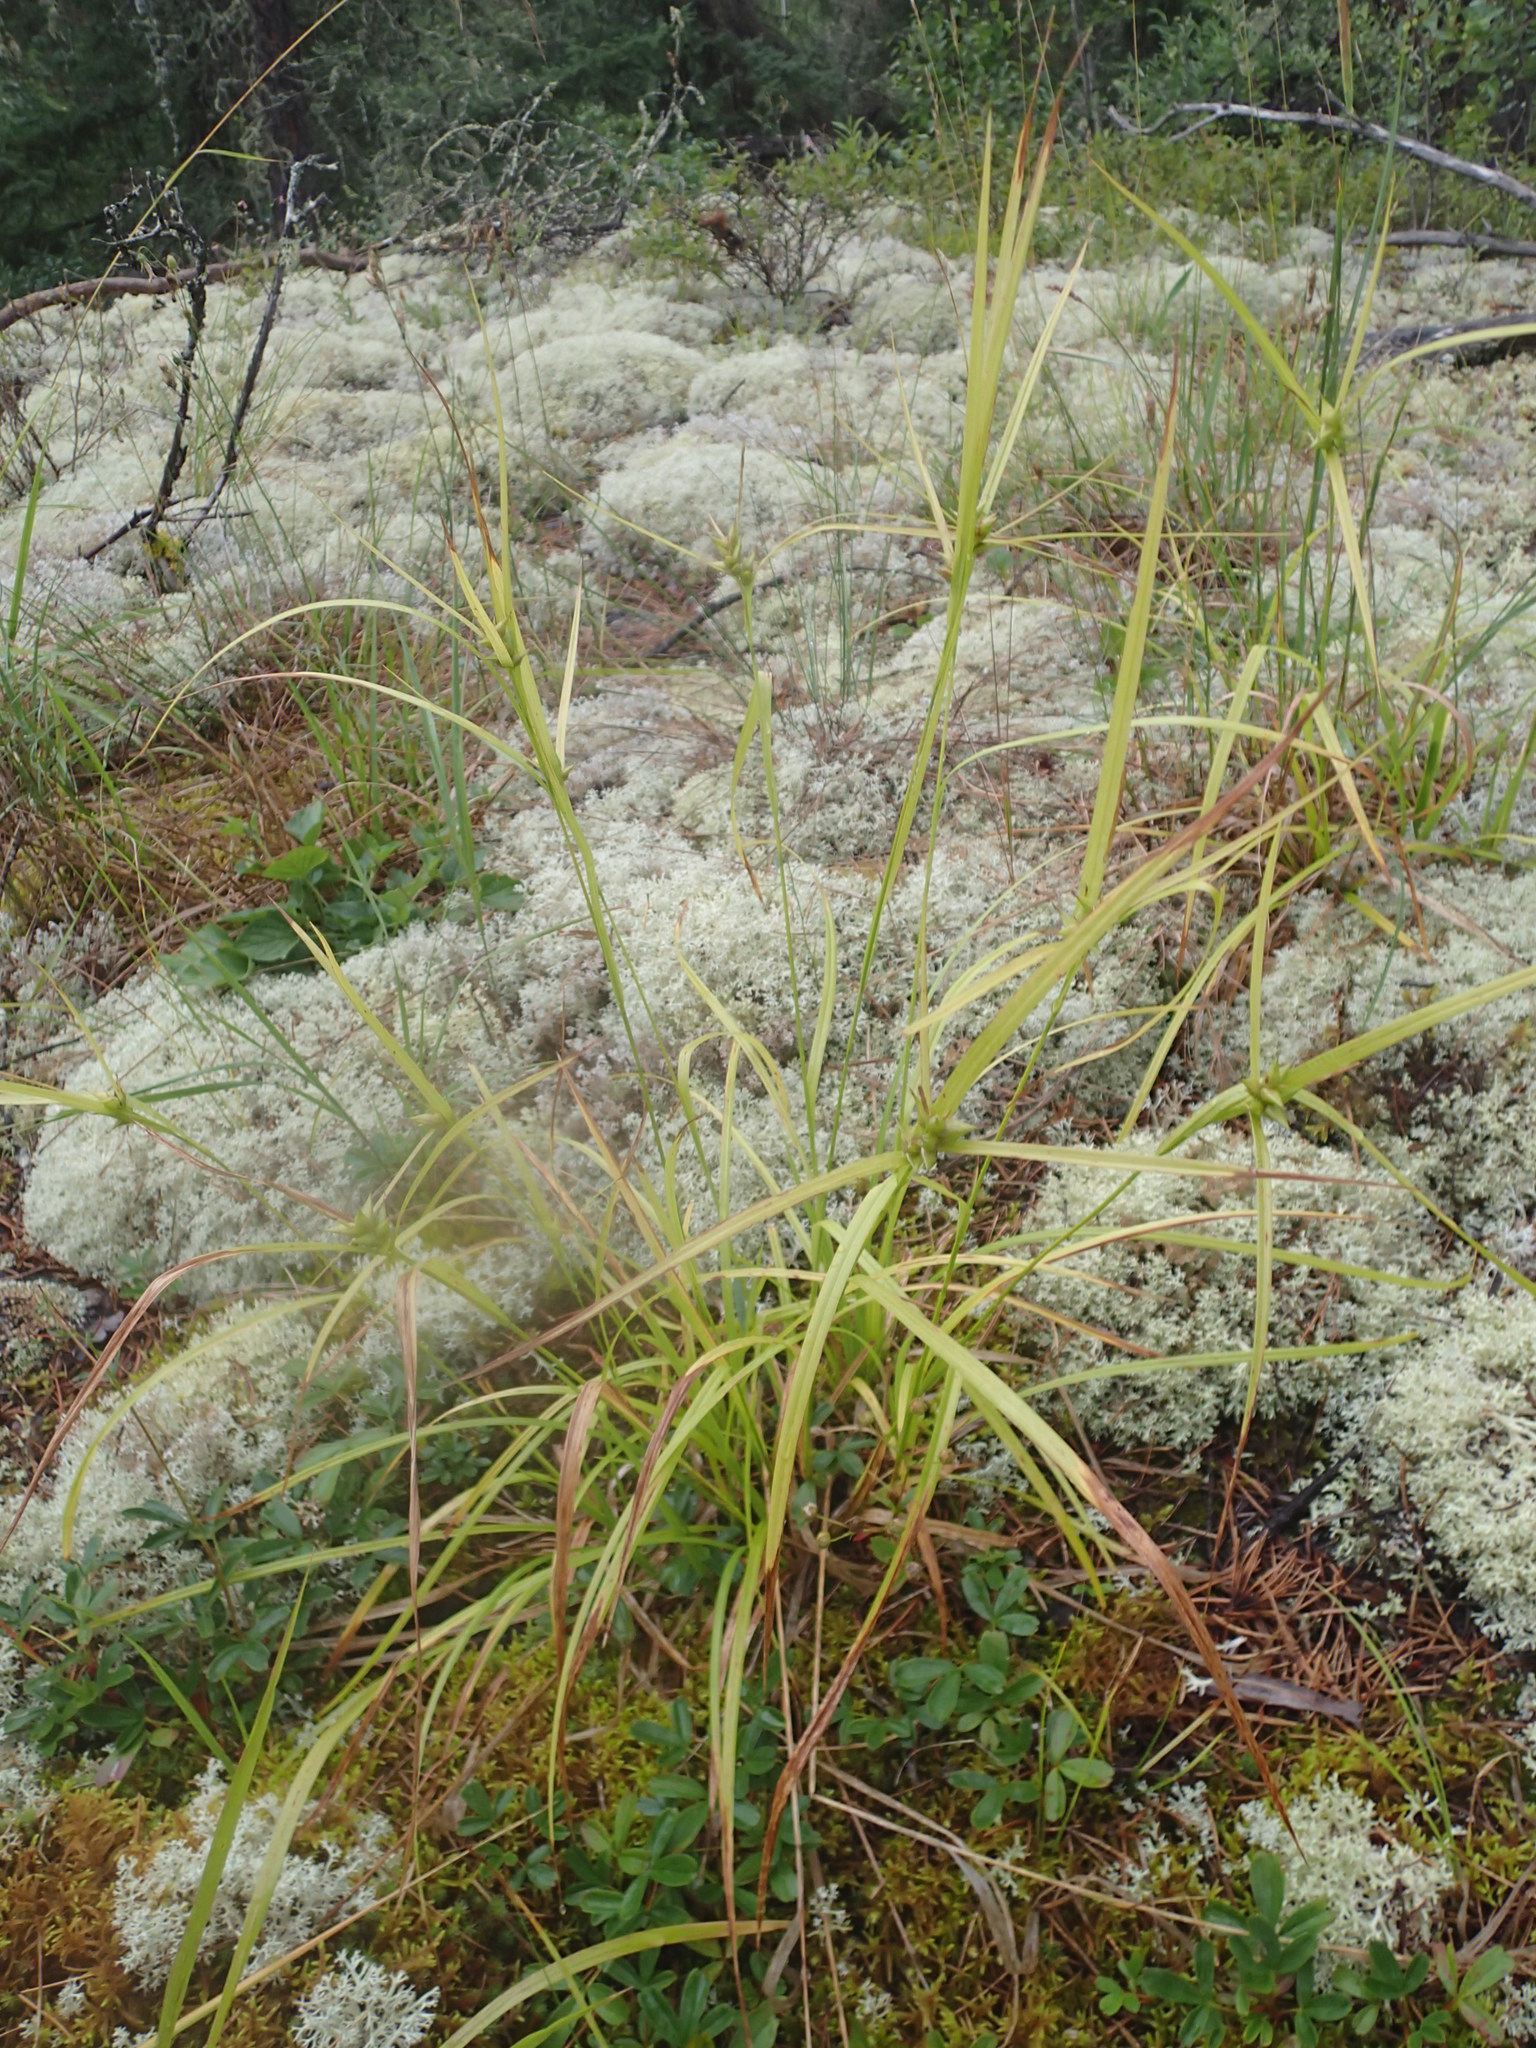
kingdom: Plantae
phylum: Tracheophyta
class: Liliopsida
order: Poales
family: Cyperaceae
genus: Carex
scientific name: Carex intumescens
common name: Greater bladder sedge
